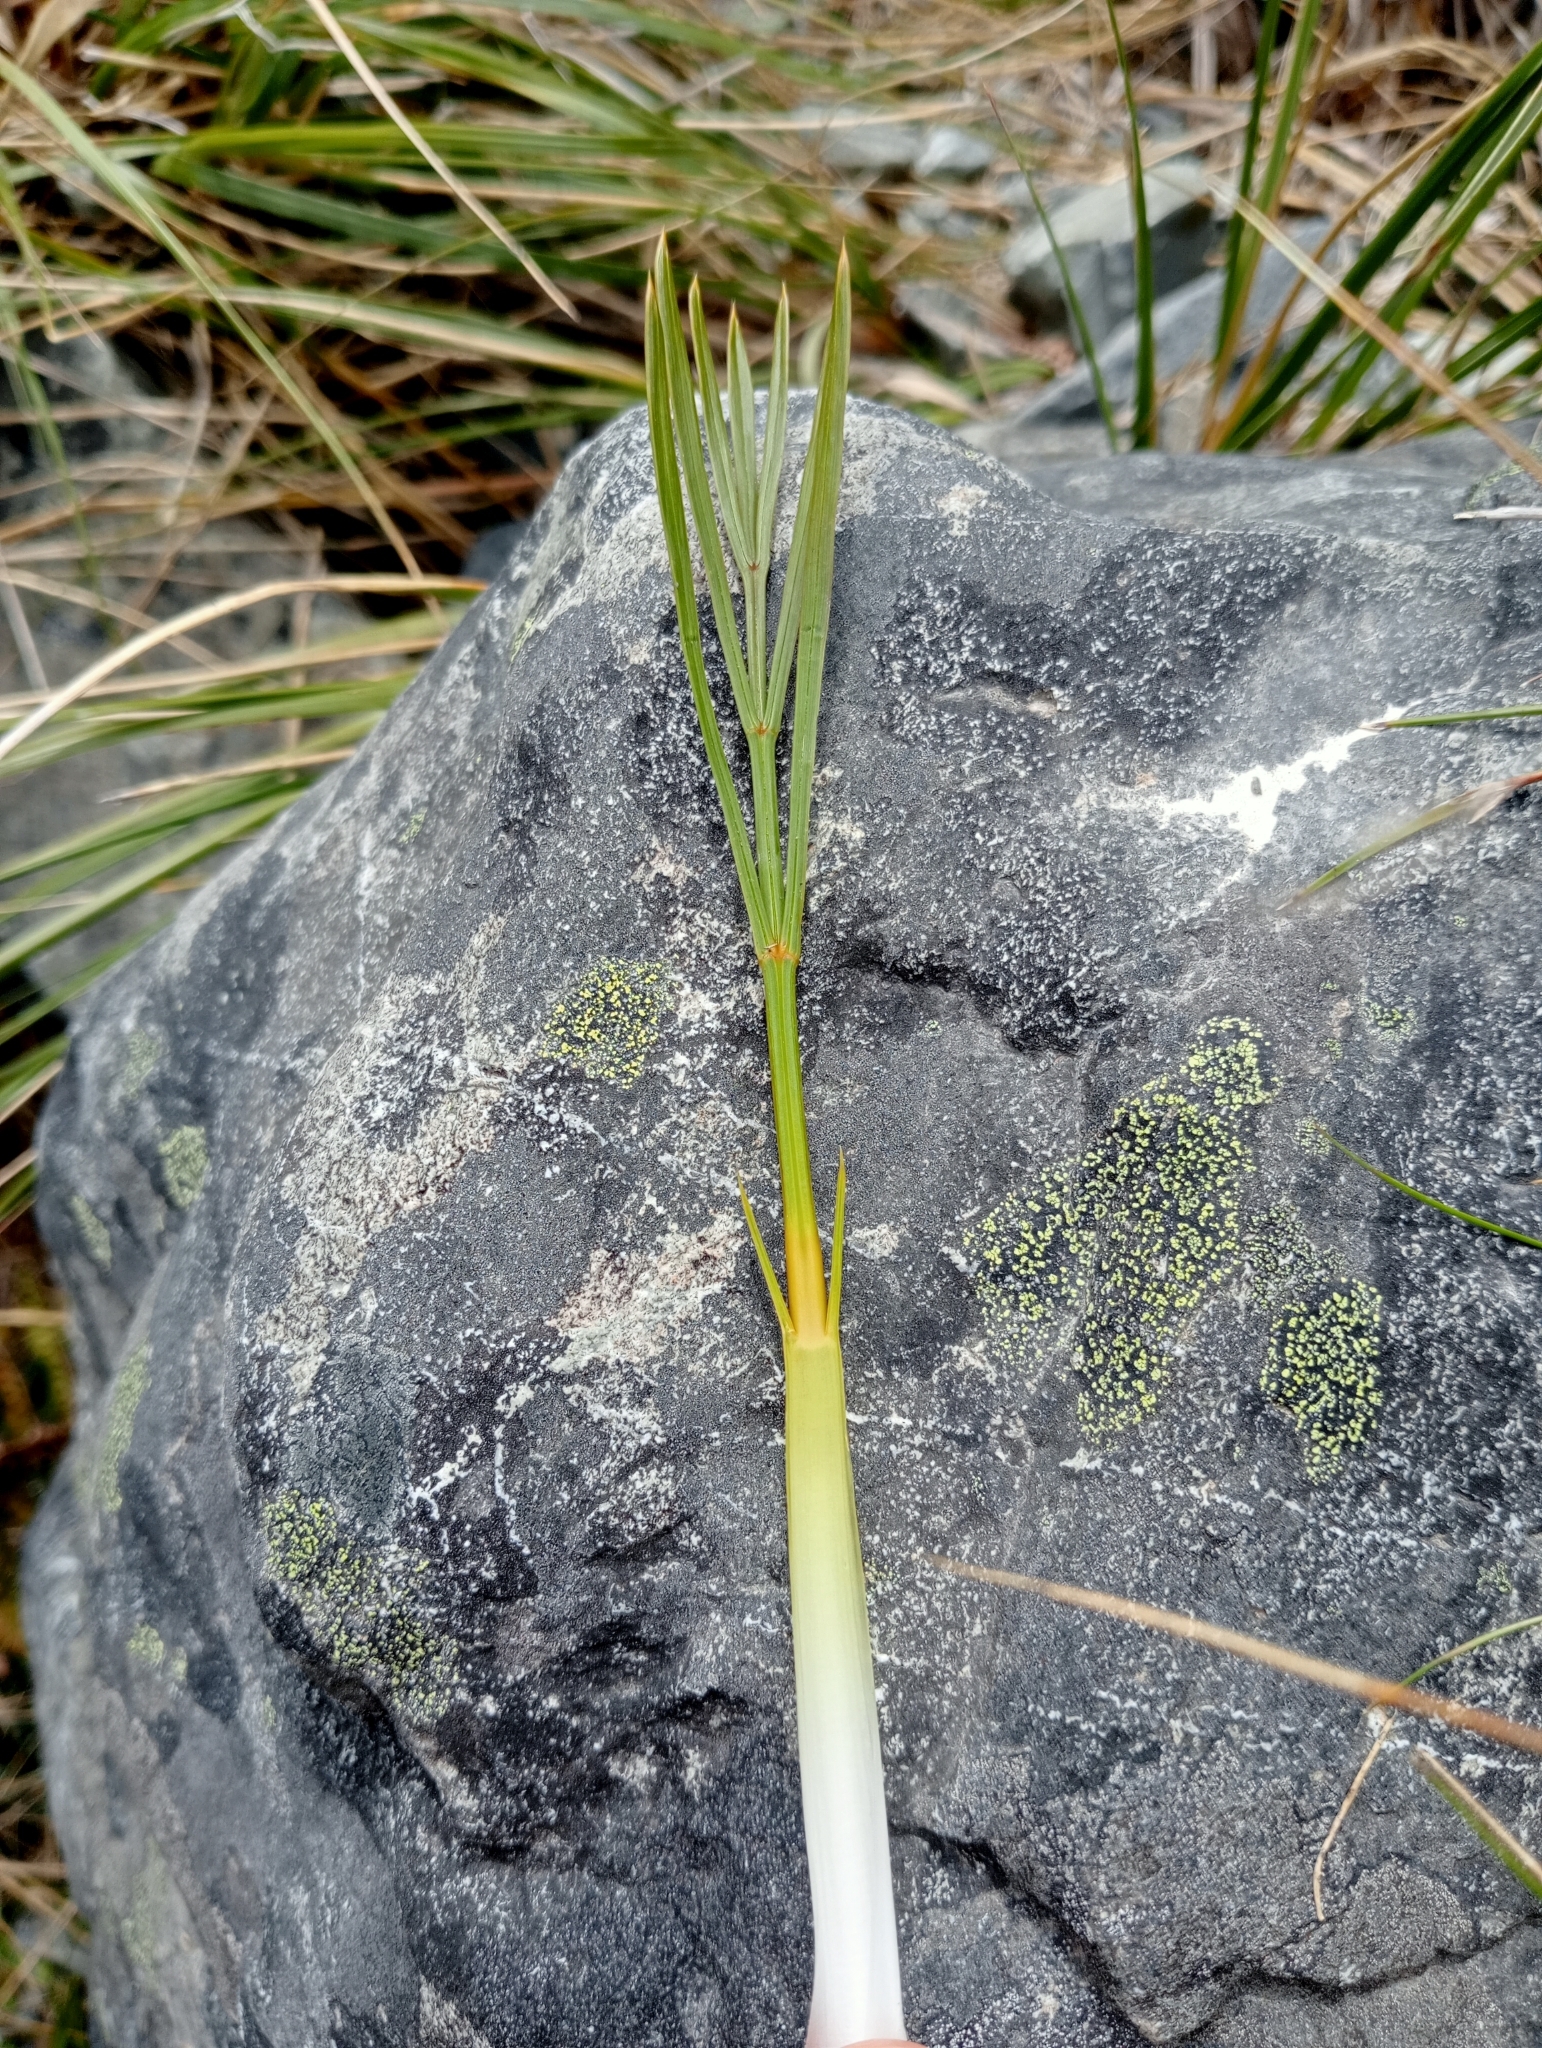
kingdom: Plantae
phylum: Tracheophyta
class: Magnoliopsida
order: Apiales
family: Apiaceae
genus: Aciphylla
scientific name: Aciphylla montana
